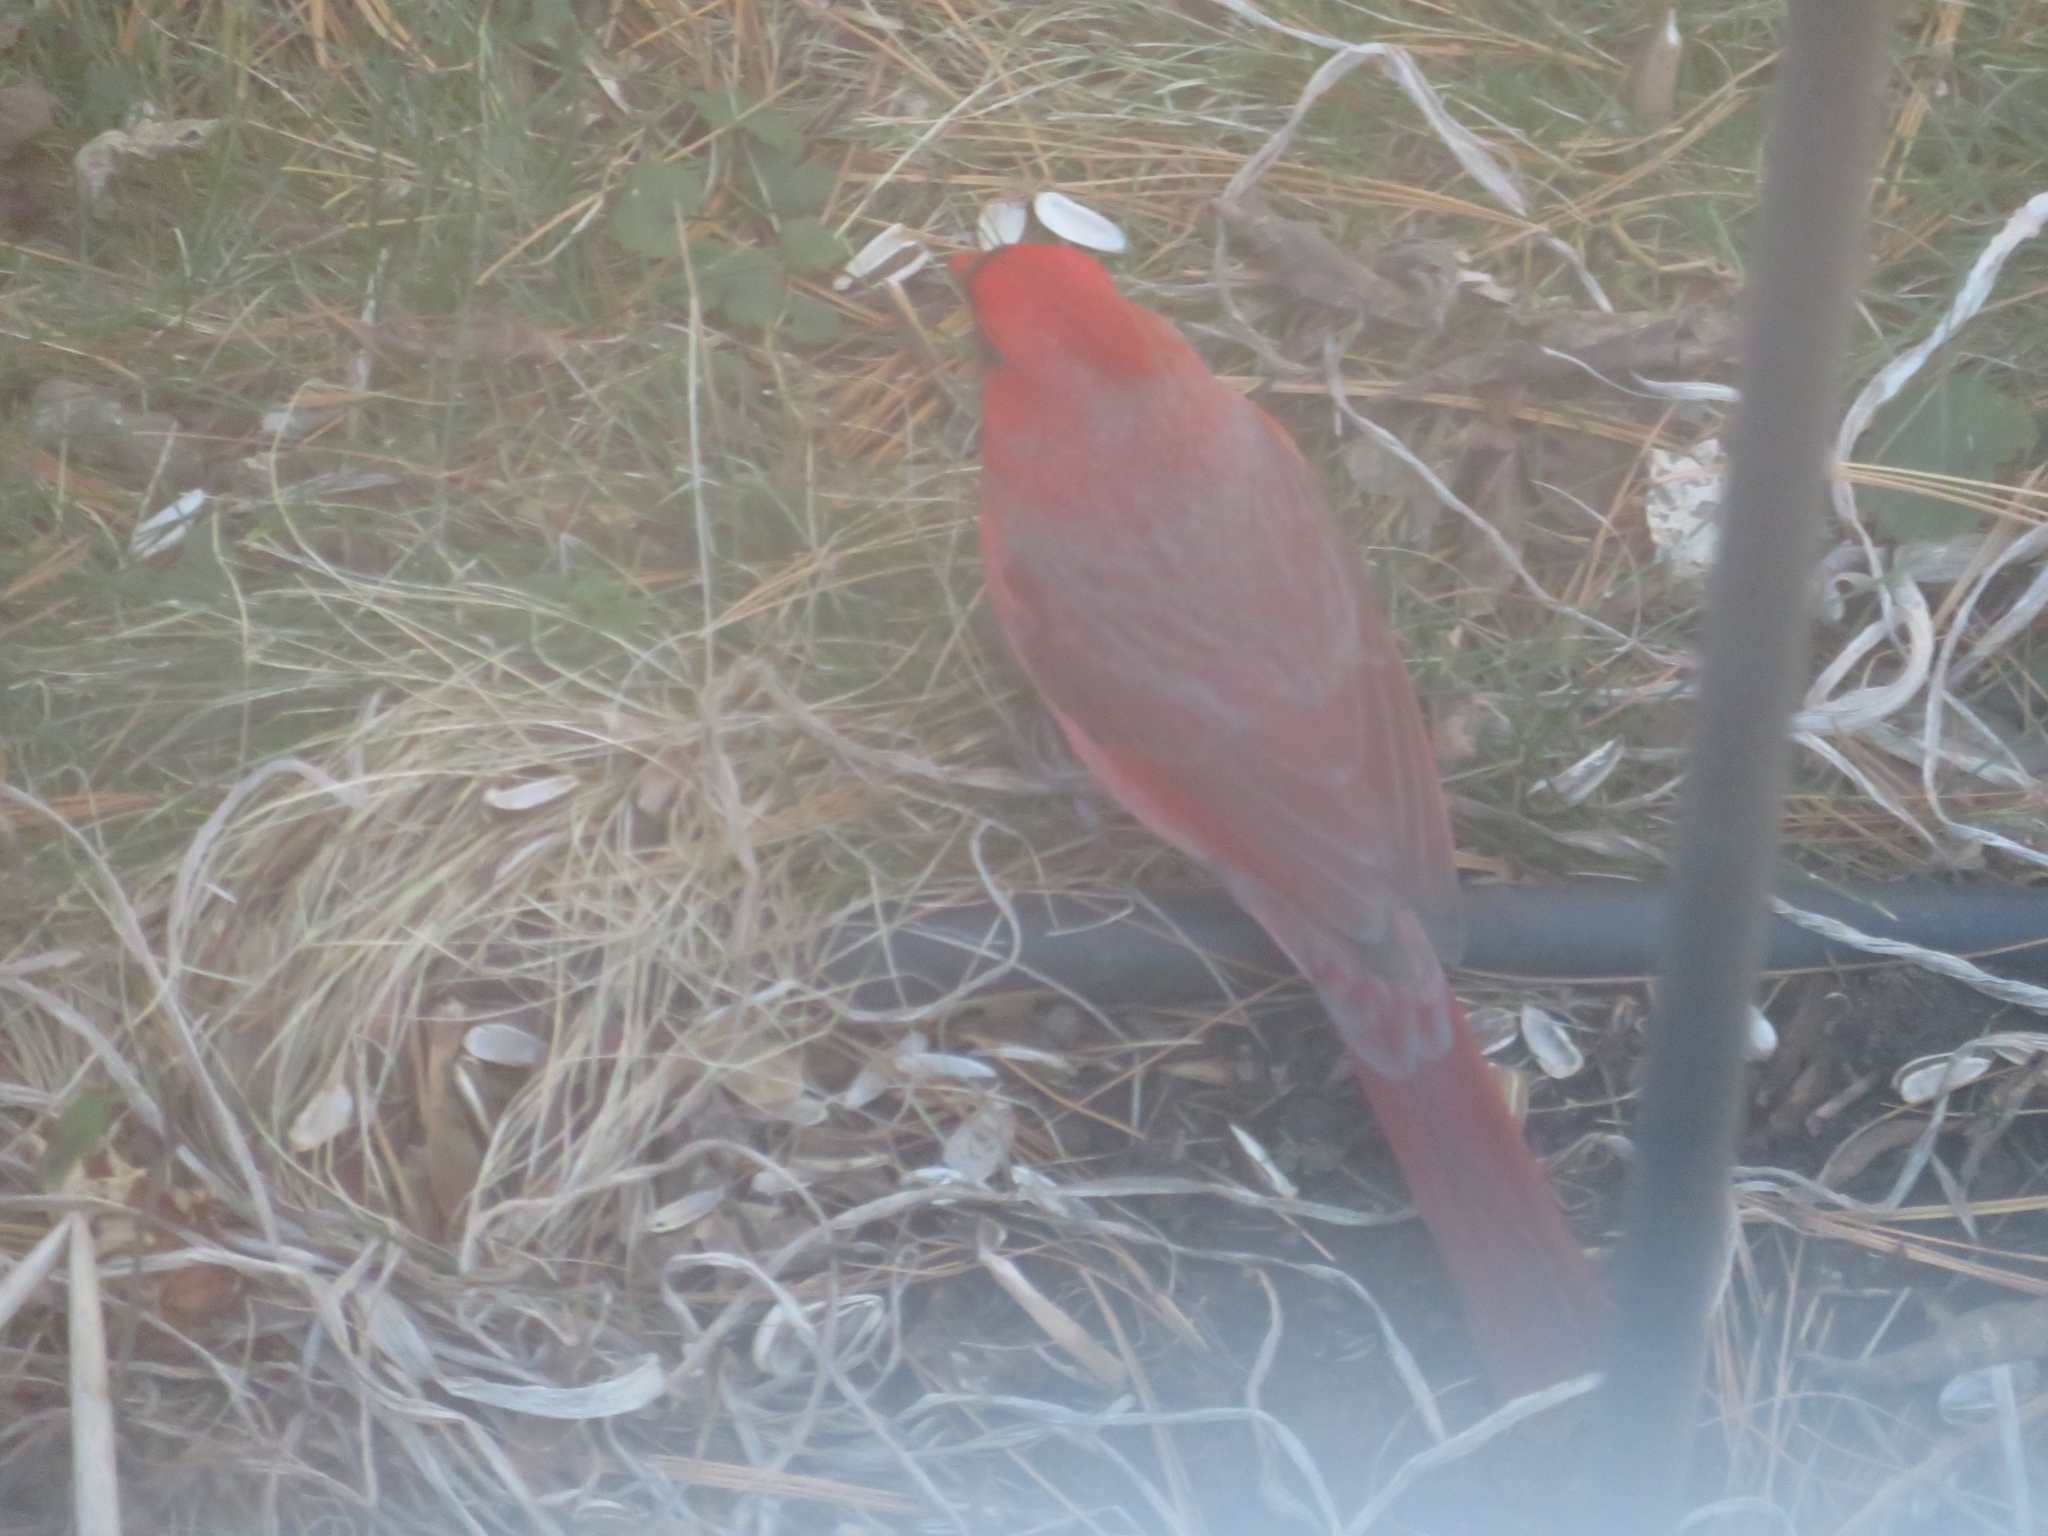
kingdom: Animalia
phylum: Chordata
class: Aves
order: Passeriformes
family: Cardinalidae
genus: Cardinalis
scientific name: Cardinalis cardinalis
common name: Northern cardinal
